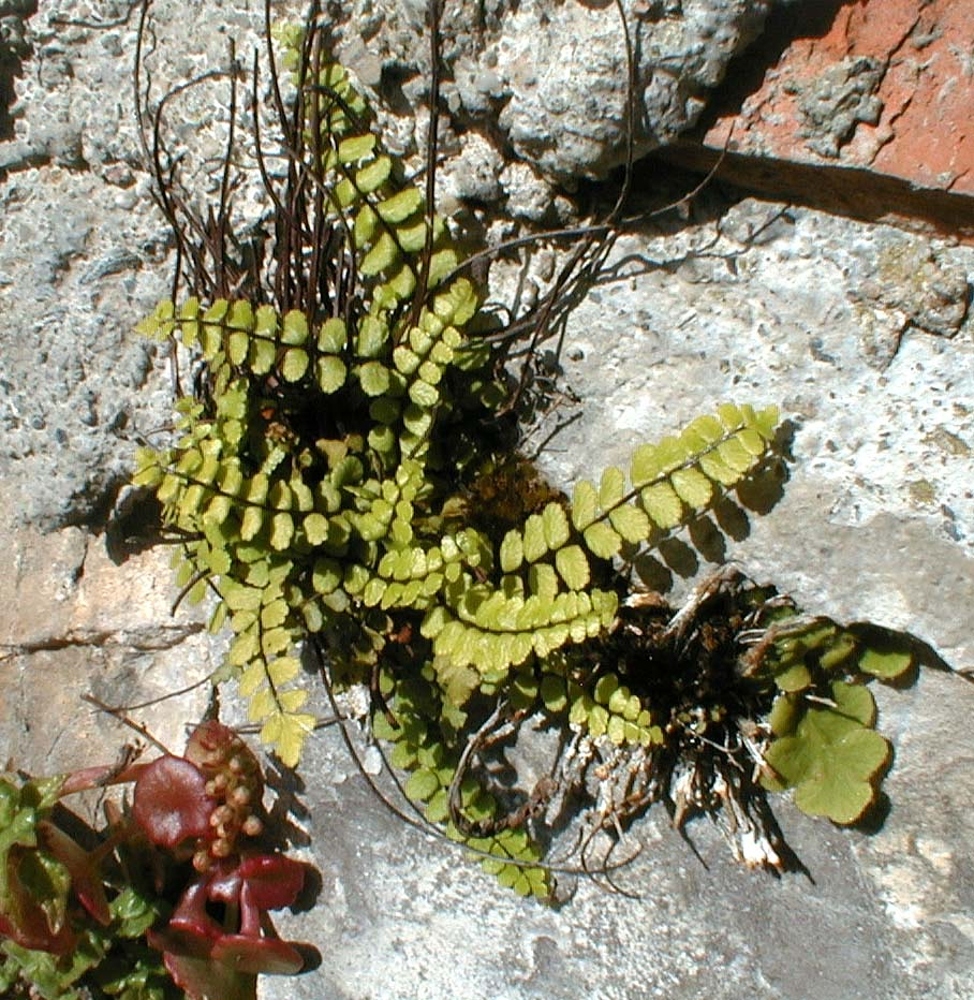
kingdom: Plantae
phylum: Tracheophyta
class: Polypodiopsida
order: Polypodiales
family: Aspleniaceae
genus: Asplenium
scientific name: Asplenium trichomanes
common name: Maidenhair spleenwort
